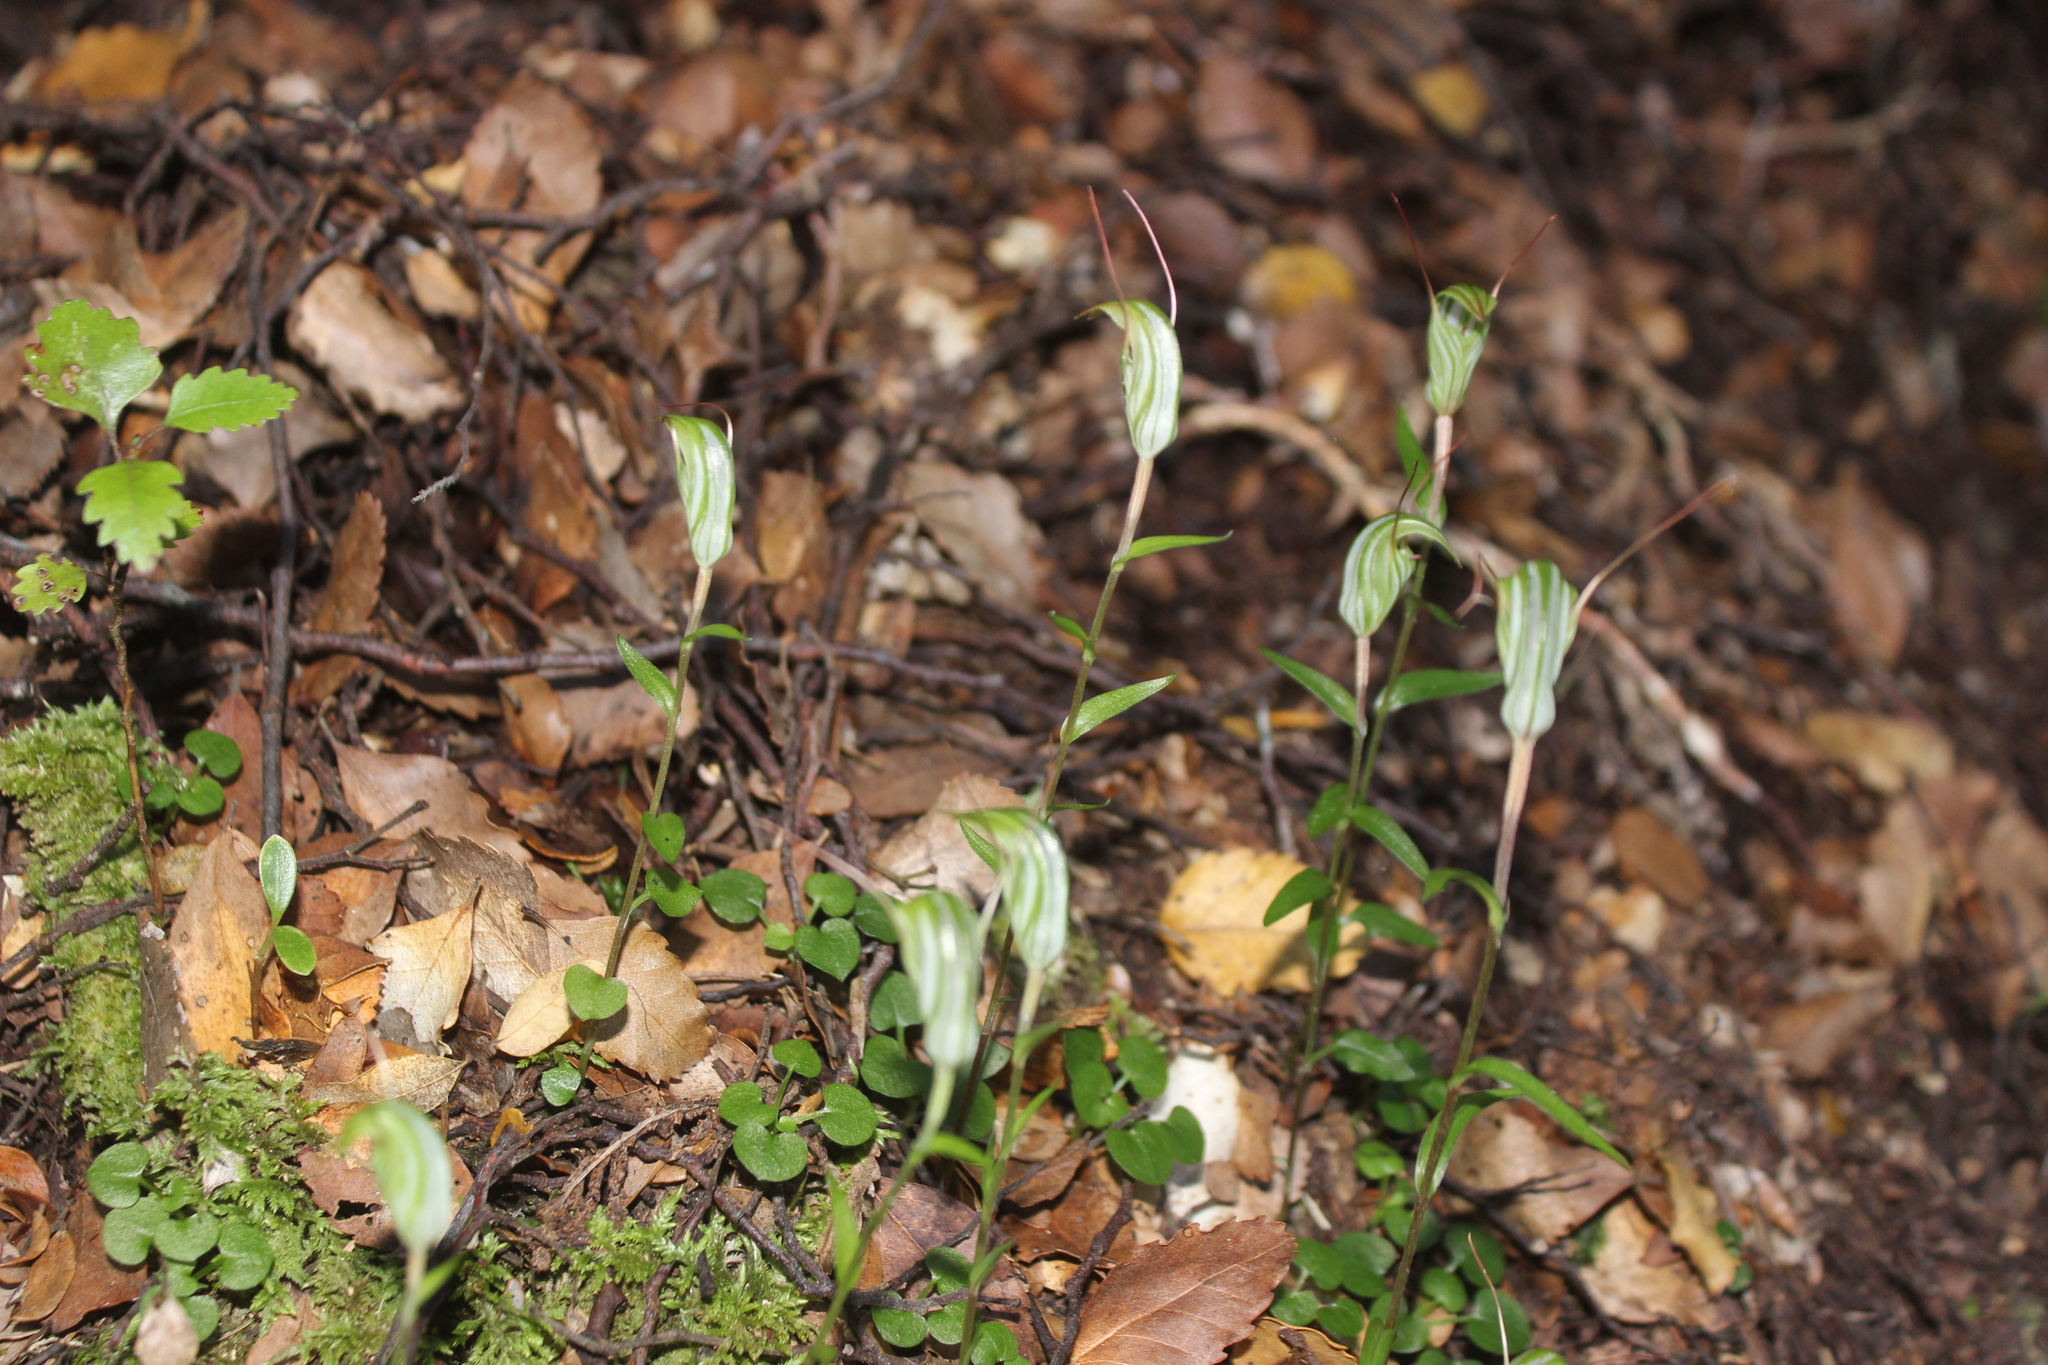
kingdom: Plantae
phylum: Tracheophyta
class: Liliopsida
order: Asparagales
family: Orchidaceae
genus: Pterostylis
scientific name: Pterostylis alobula
